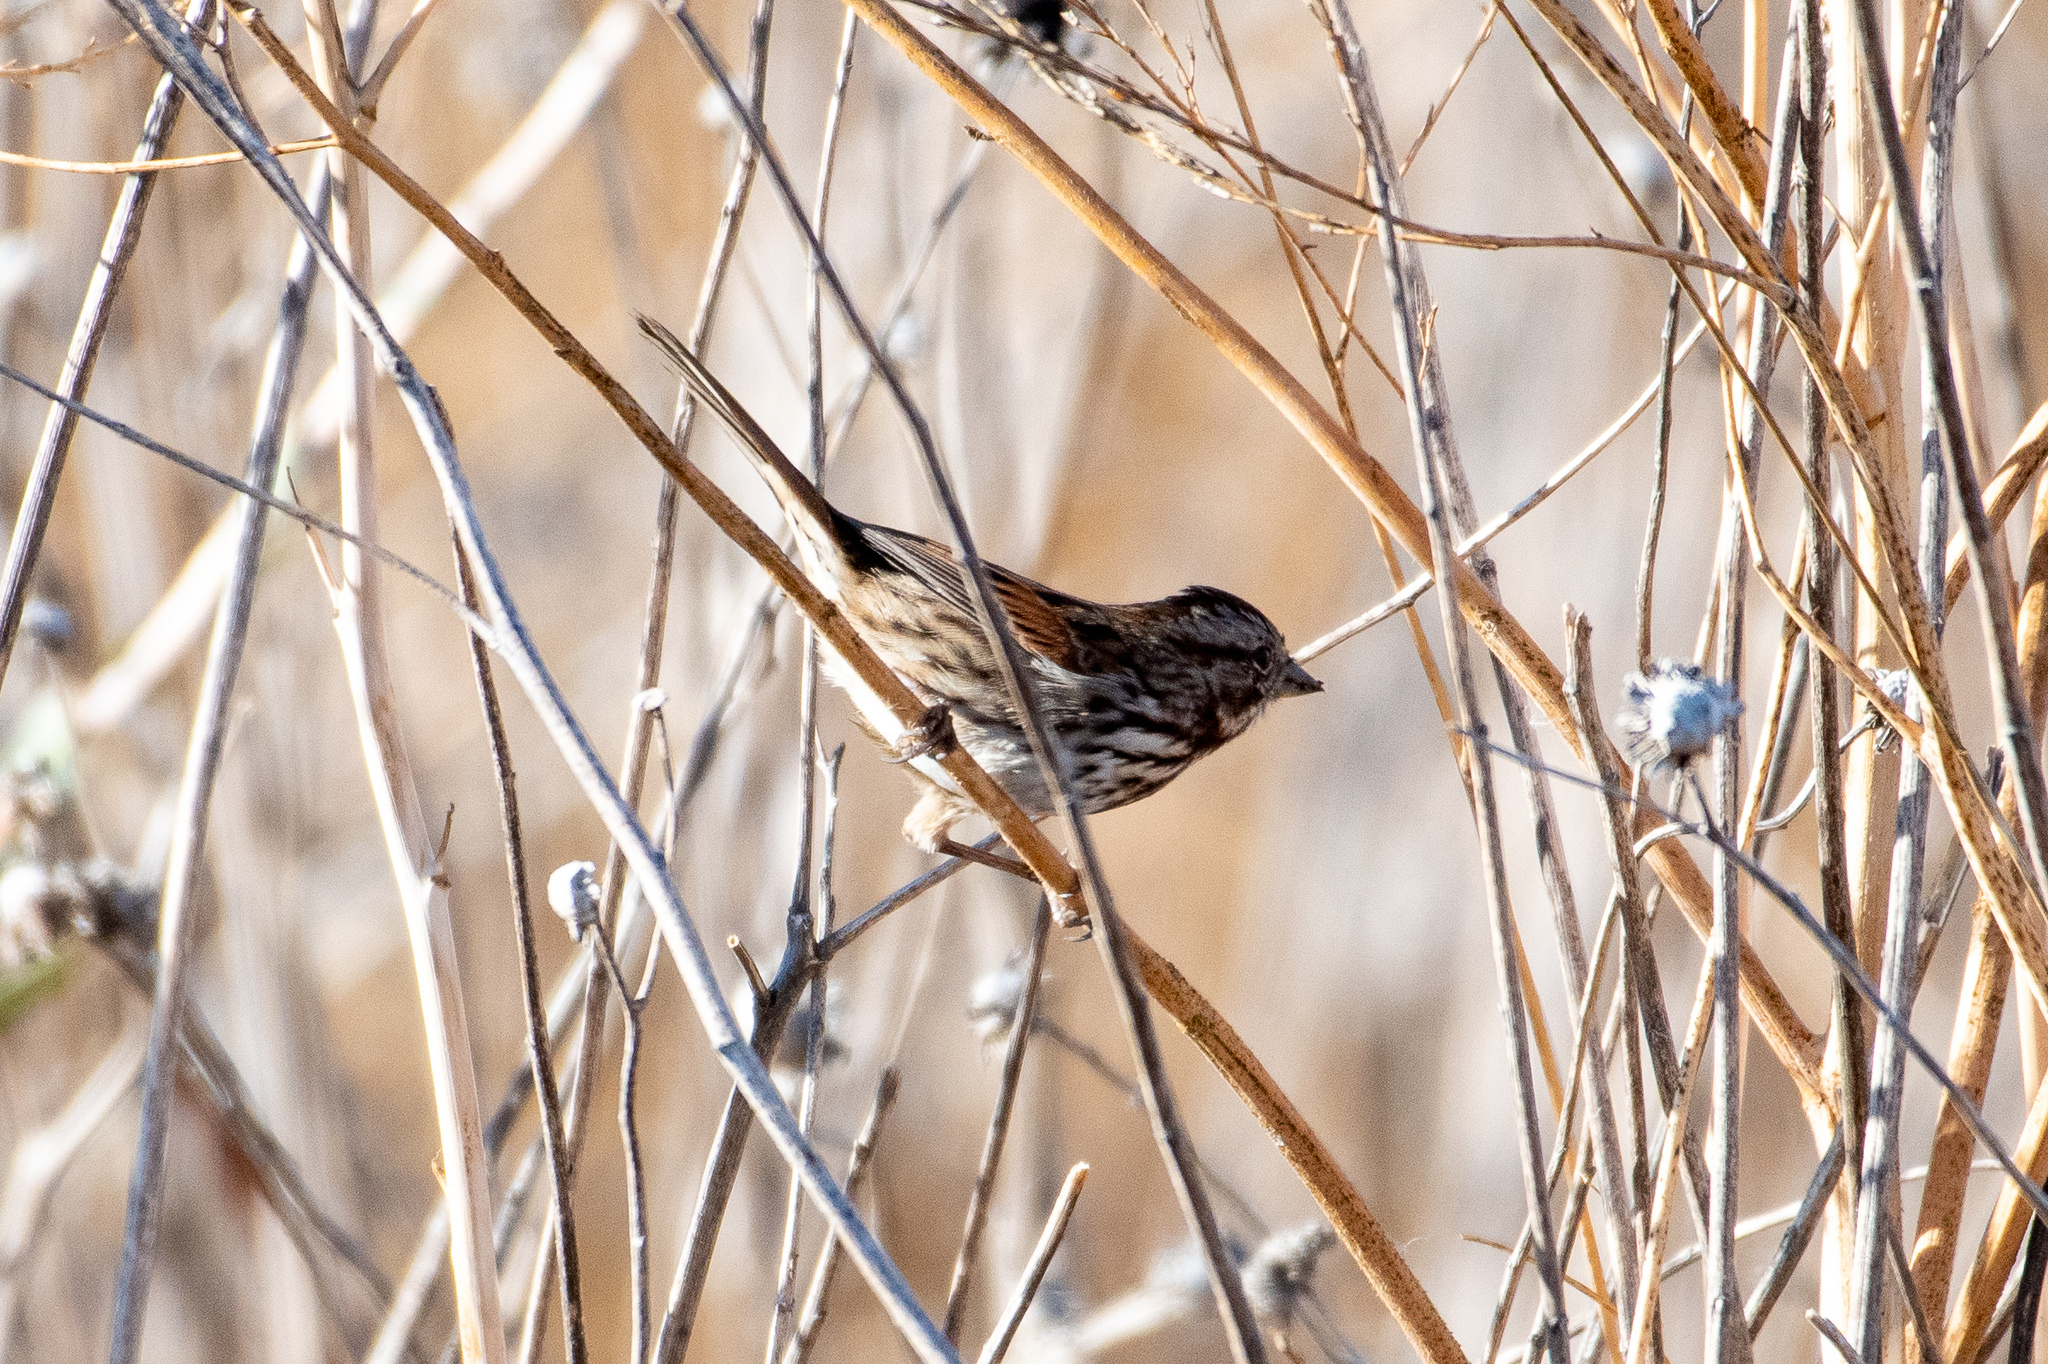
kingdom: Animalia
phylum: Chordata
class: Aves
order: Passeriformes
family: Passerellidae
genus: Melospiza
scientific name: Melospiza melodia
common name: Song sparrow
